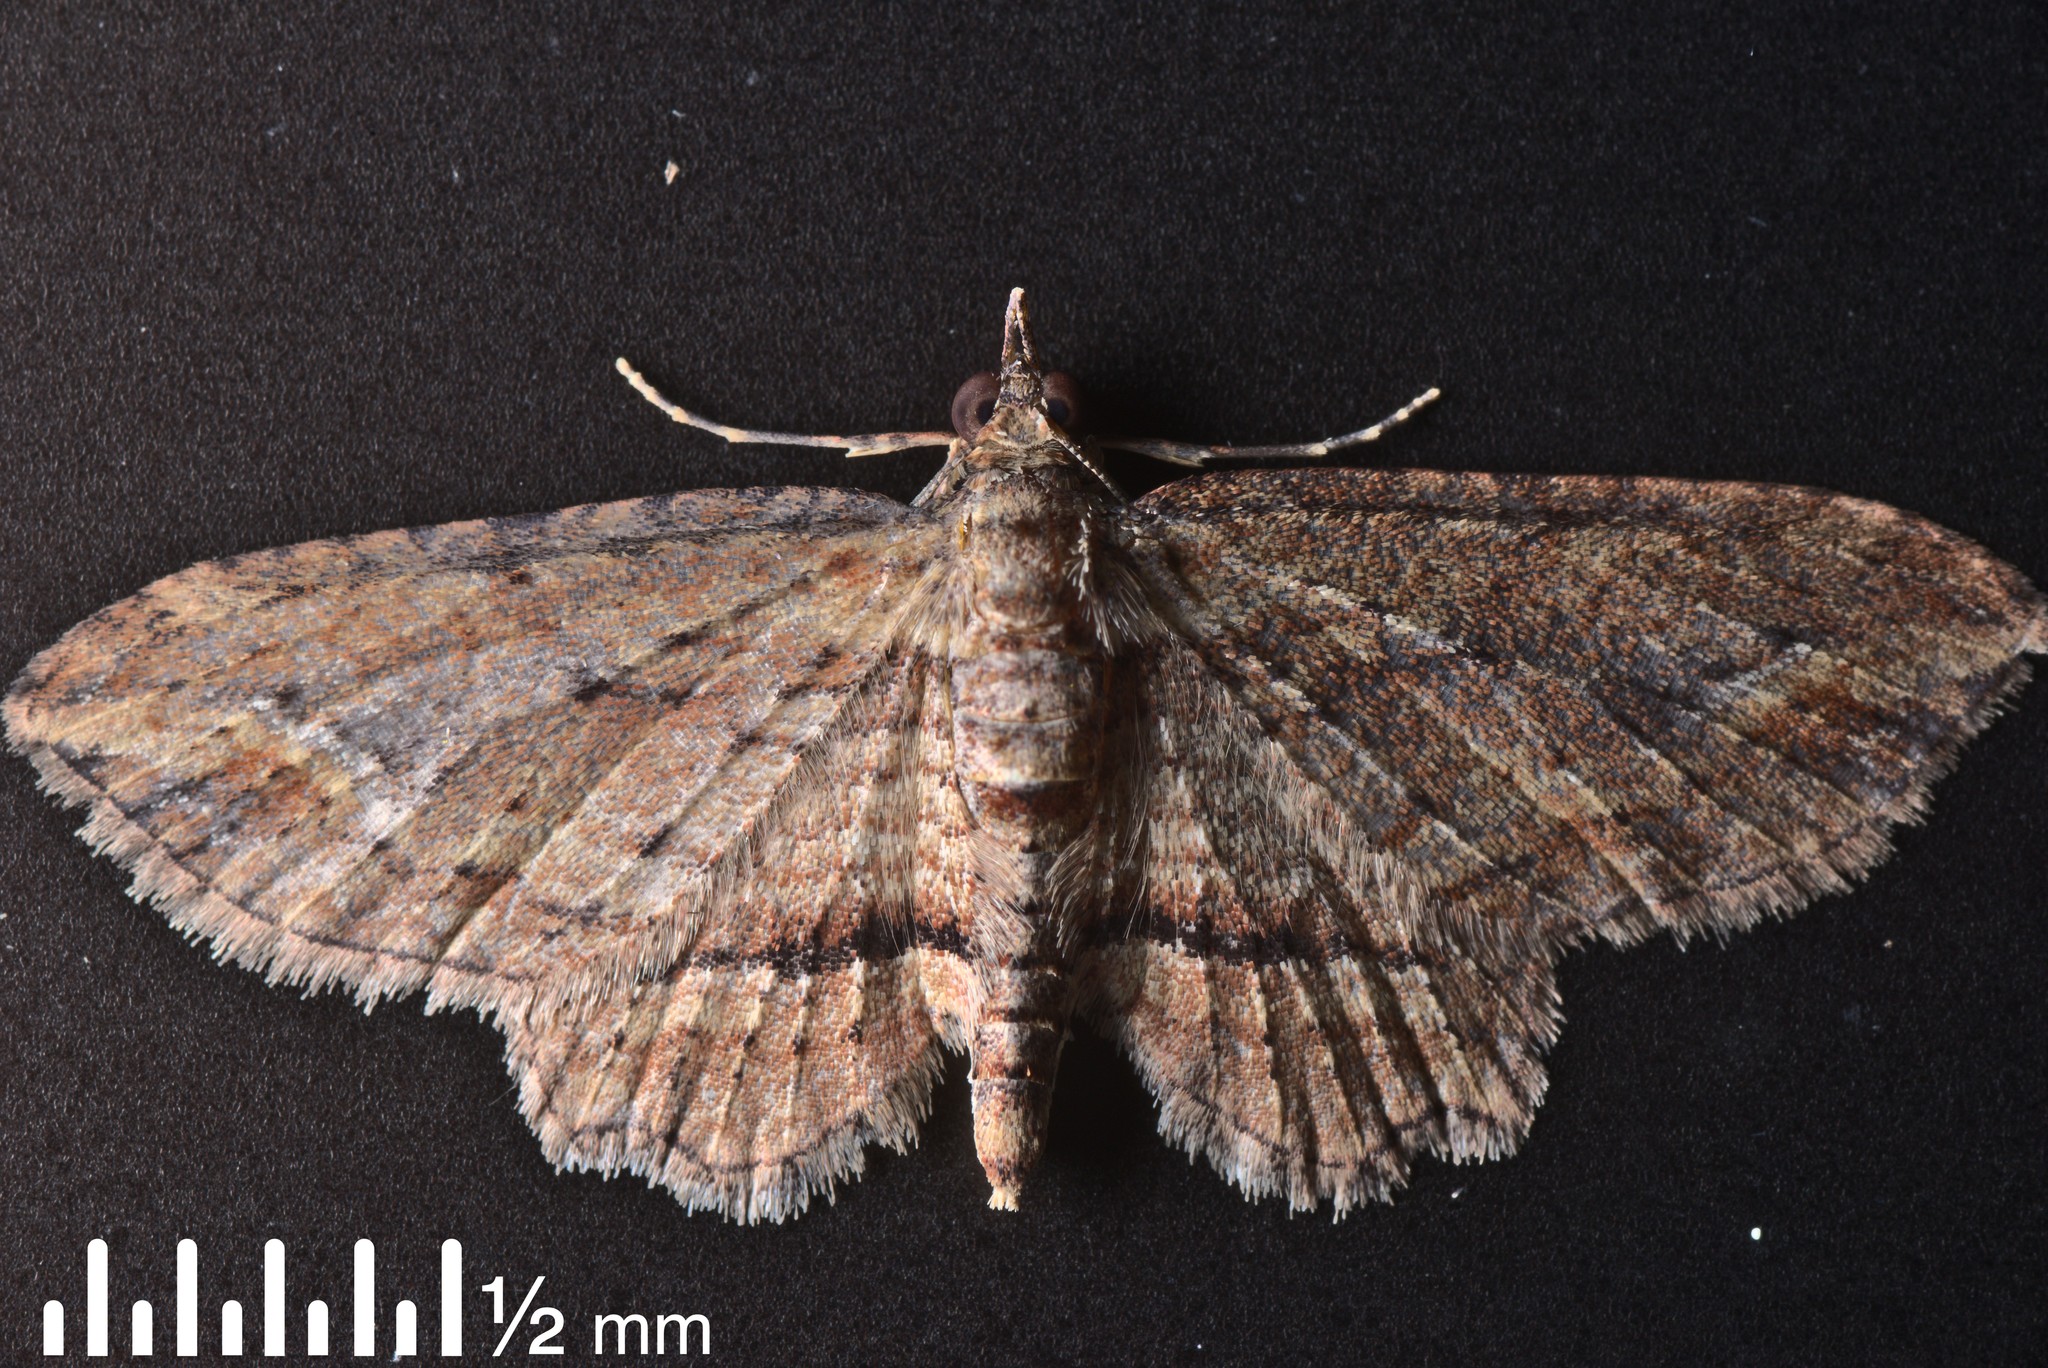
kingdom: Animalia
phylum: Arthropoda
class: Insecta
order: Lepidoptera
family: Geometridae
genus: Chloroclystis
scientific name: Chloroclystis filata
